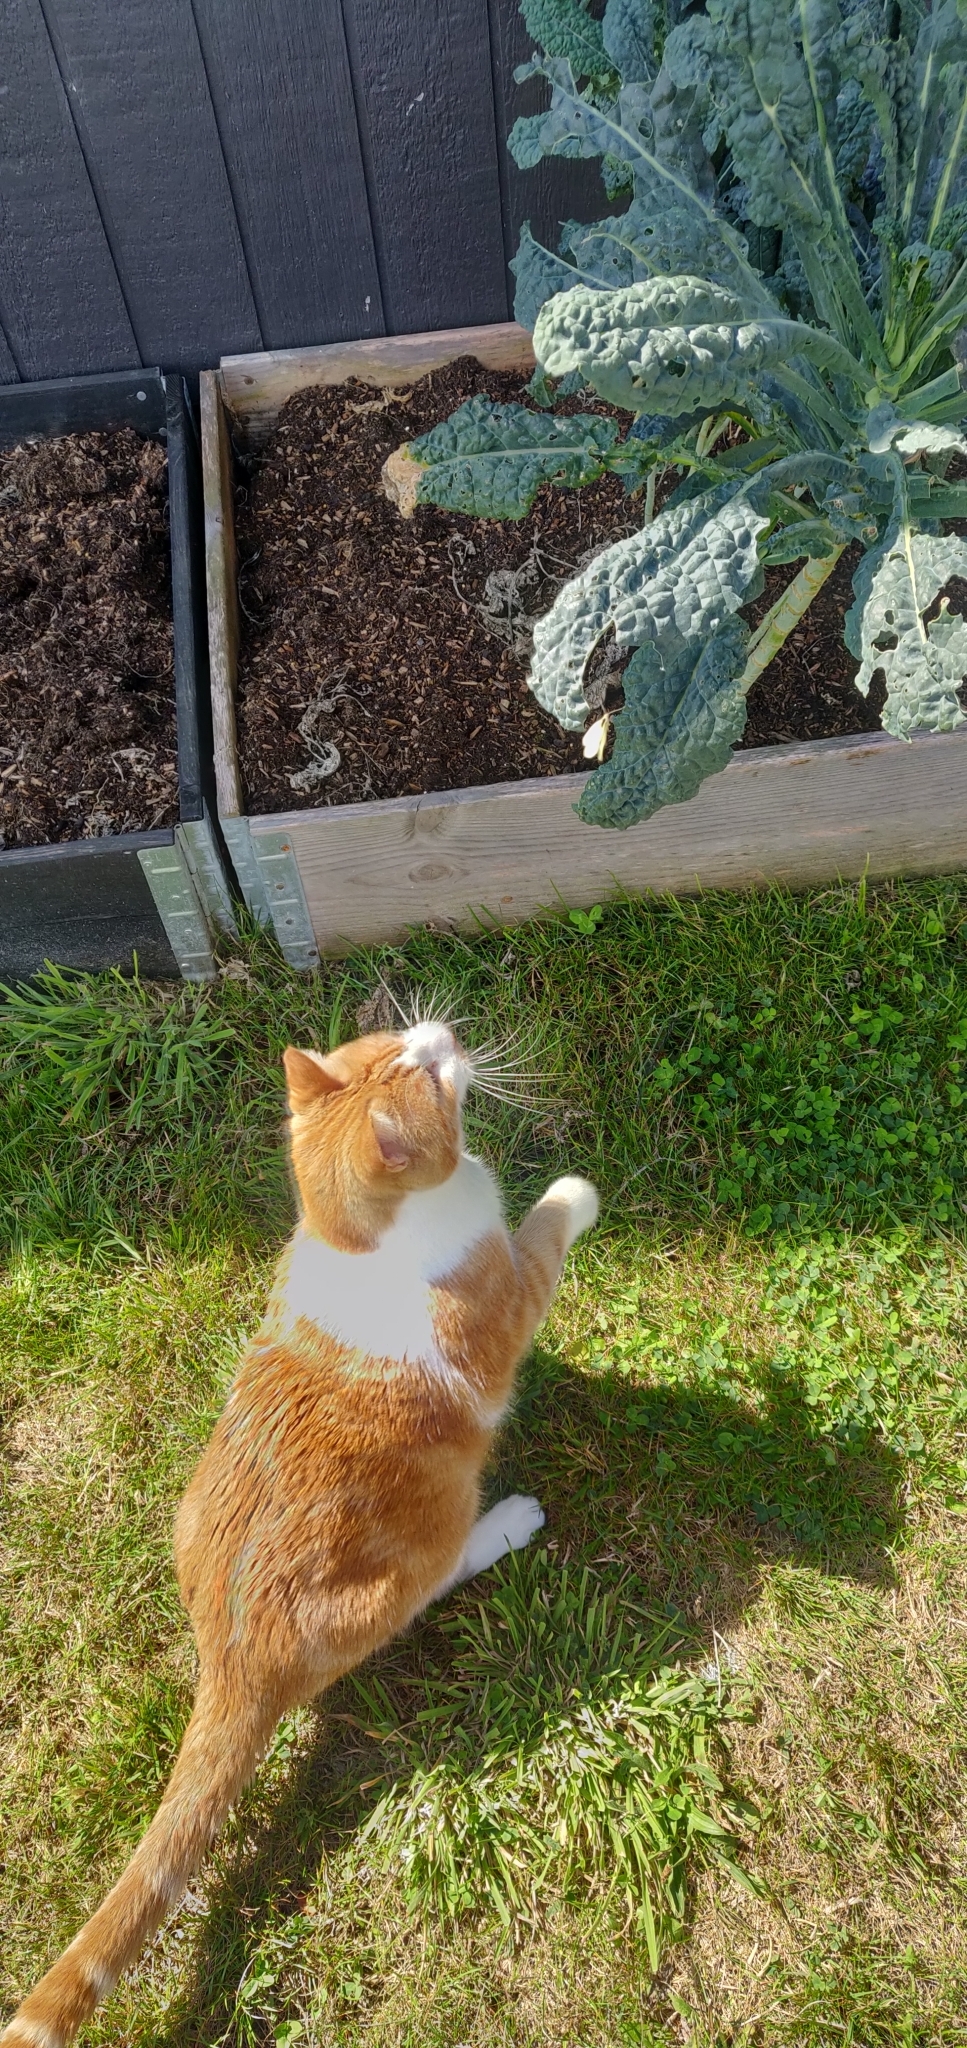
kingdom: Animalia
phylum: Arthropoda
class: Insecta
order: Lepidoptera
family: Pieridae
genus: Pieris
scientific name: Pieris rapae
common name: Small white
